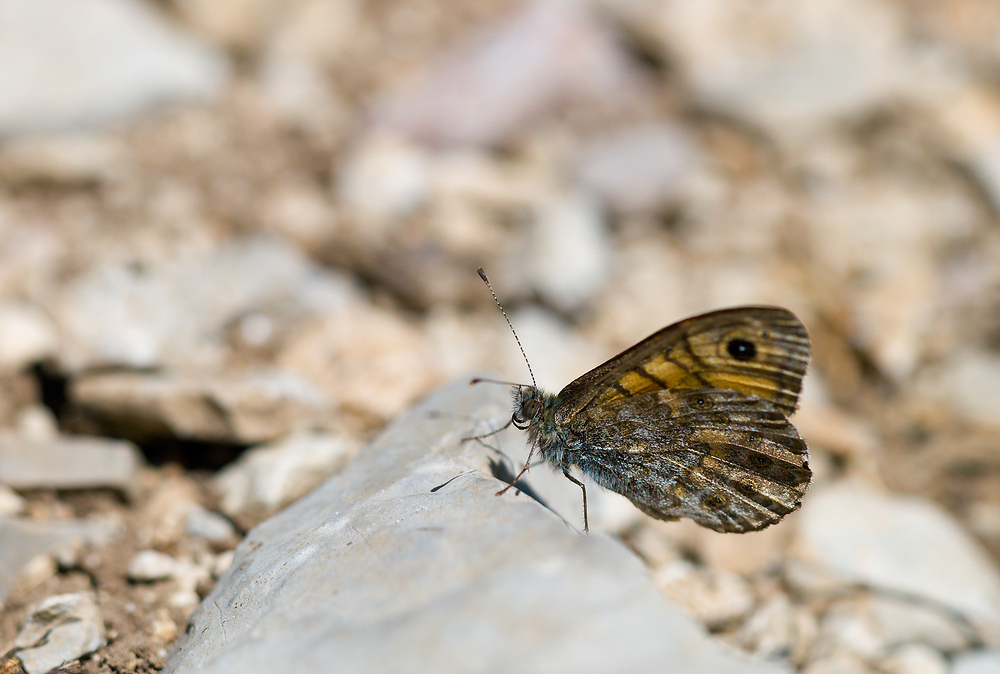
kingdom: Animalia
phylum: Arthropoda
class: Insecta
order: Lepidoptera
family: Nymphalidae
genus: Pararge
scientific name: Pararge Lasiommata megera
